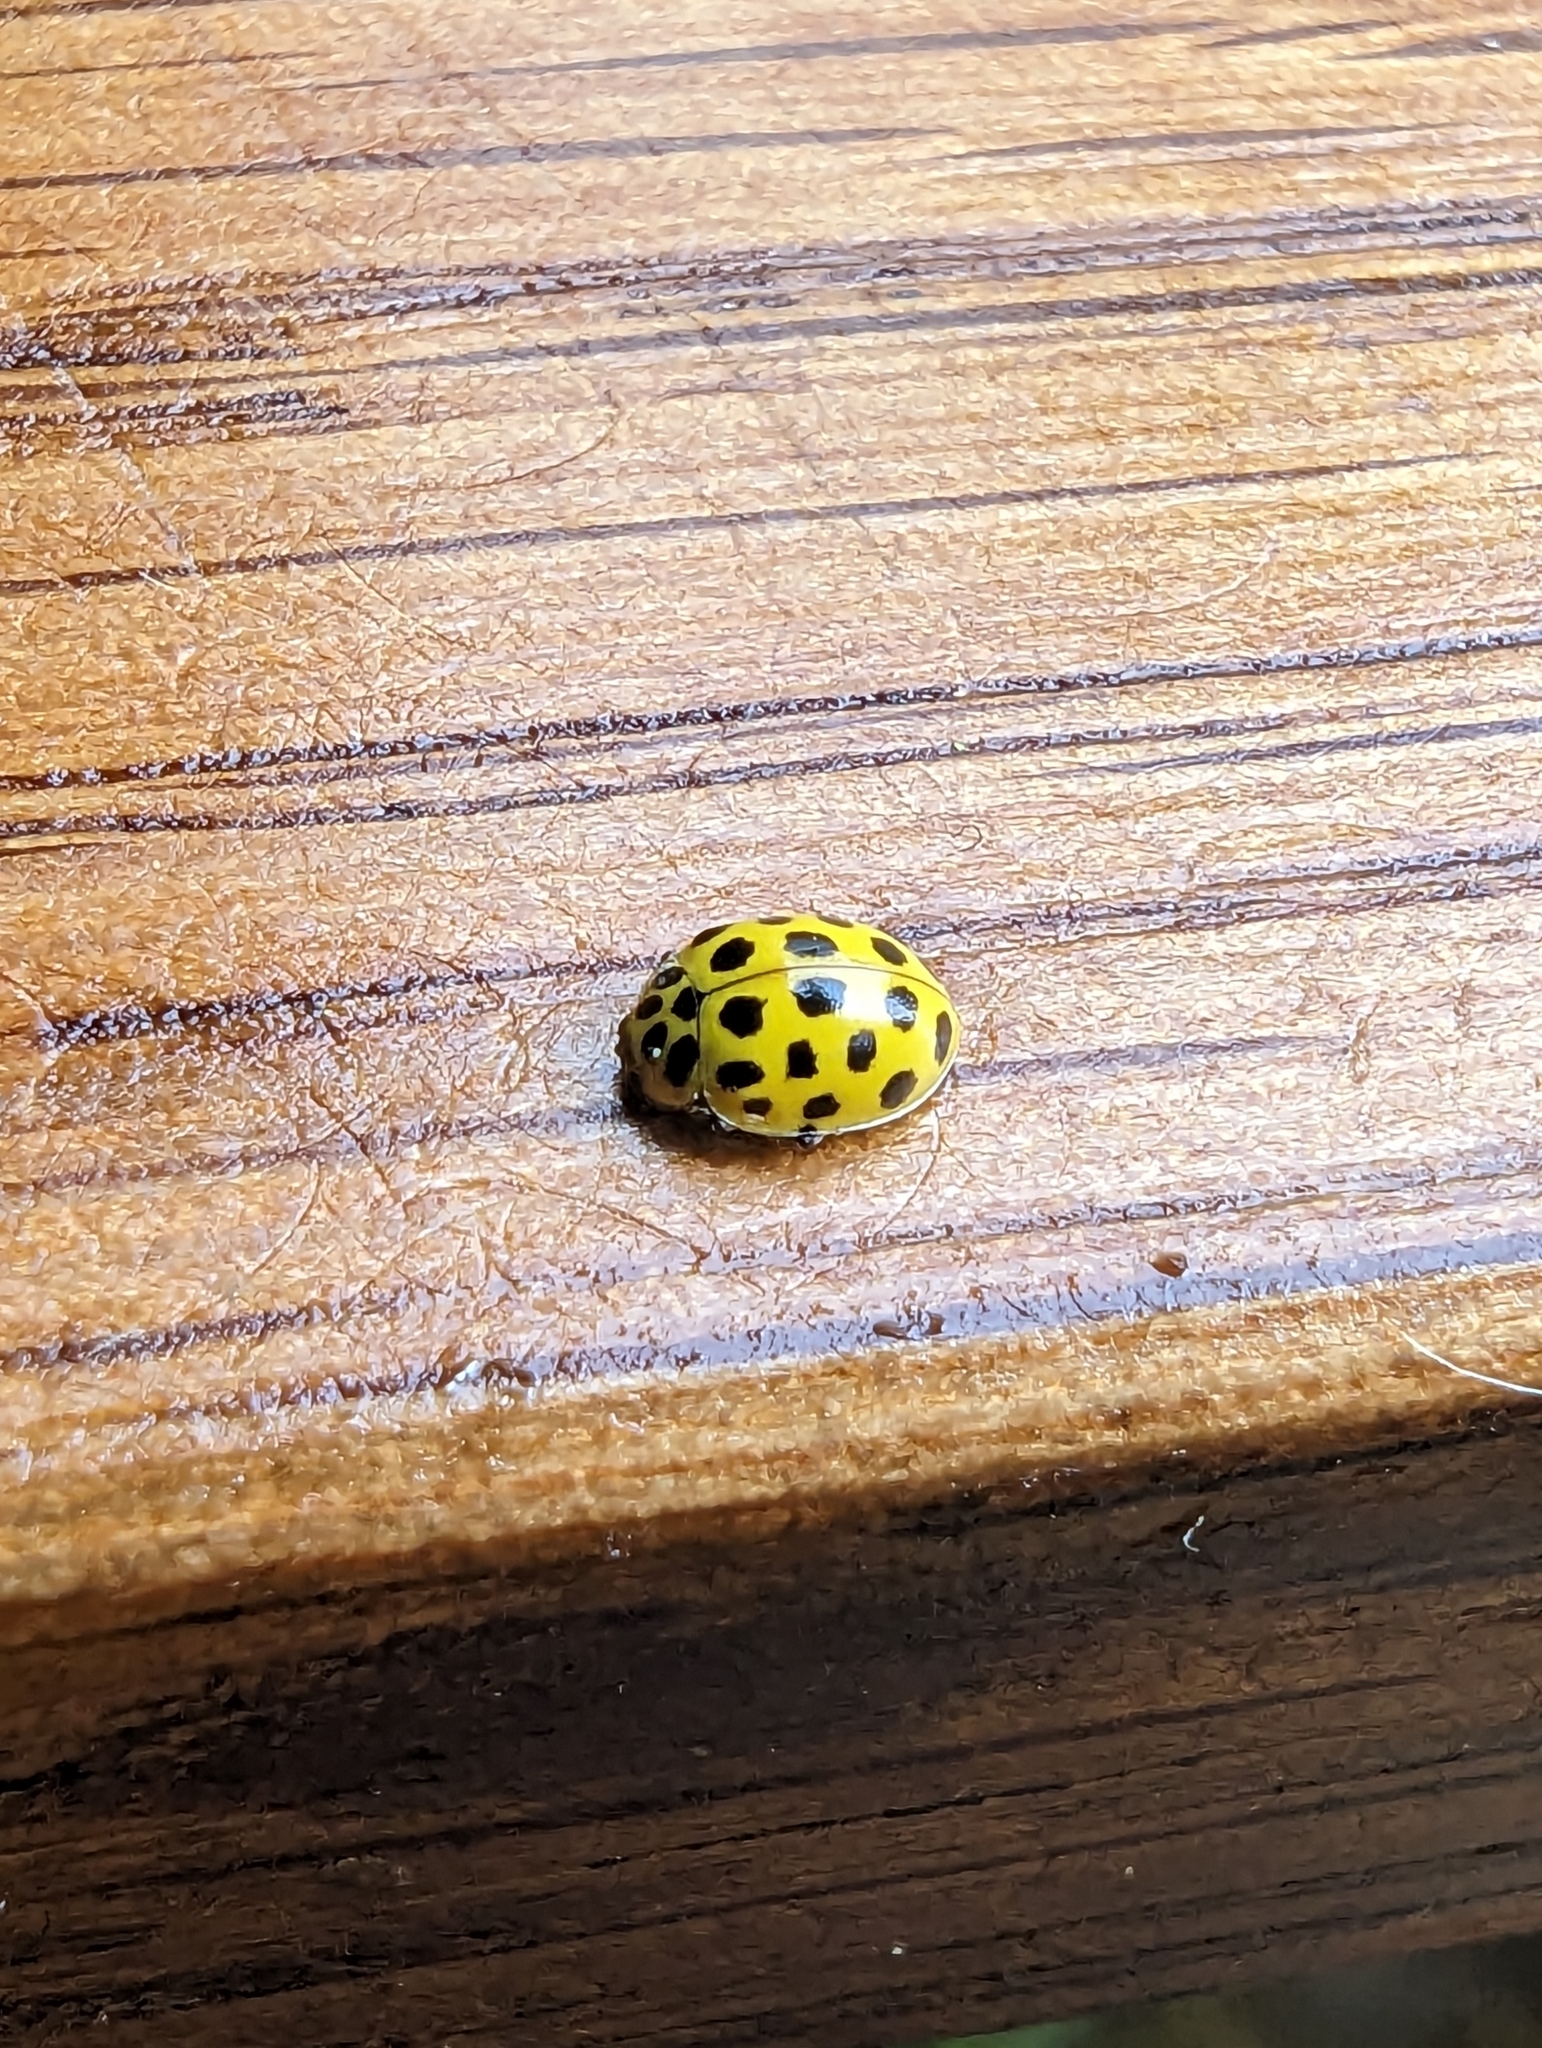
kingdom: Animalia
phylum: Arthropoda
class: Insecta
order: Coleoptera
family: Coccinellidae
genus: Psyllobora
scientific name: Psyllobora vigintiduopunctata
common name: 22-spot ladybird
